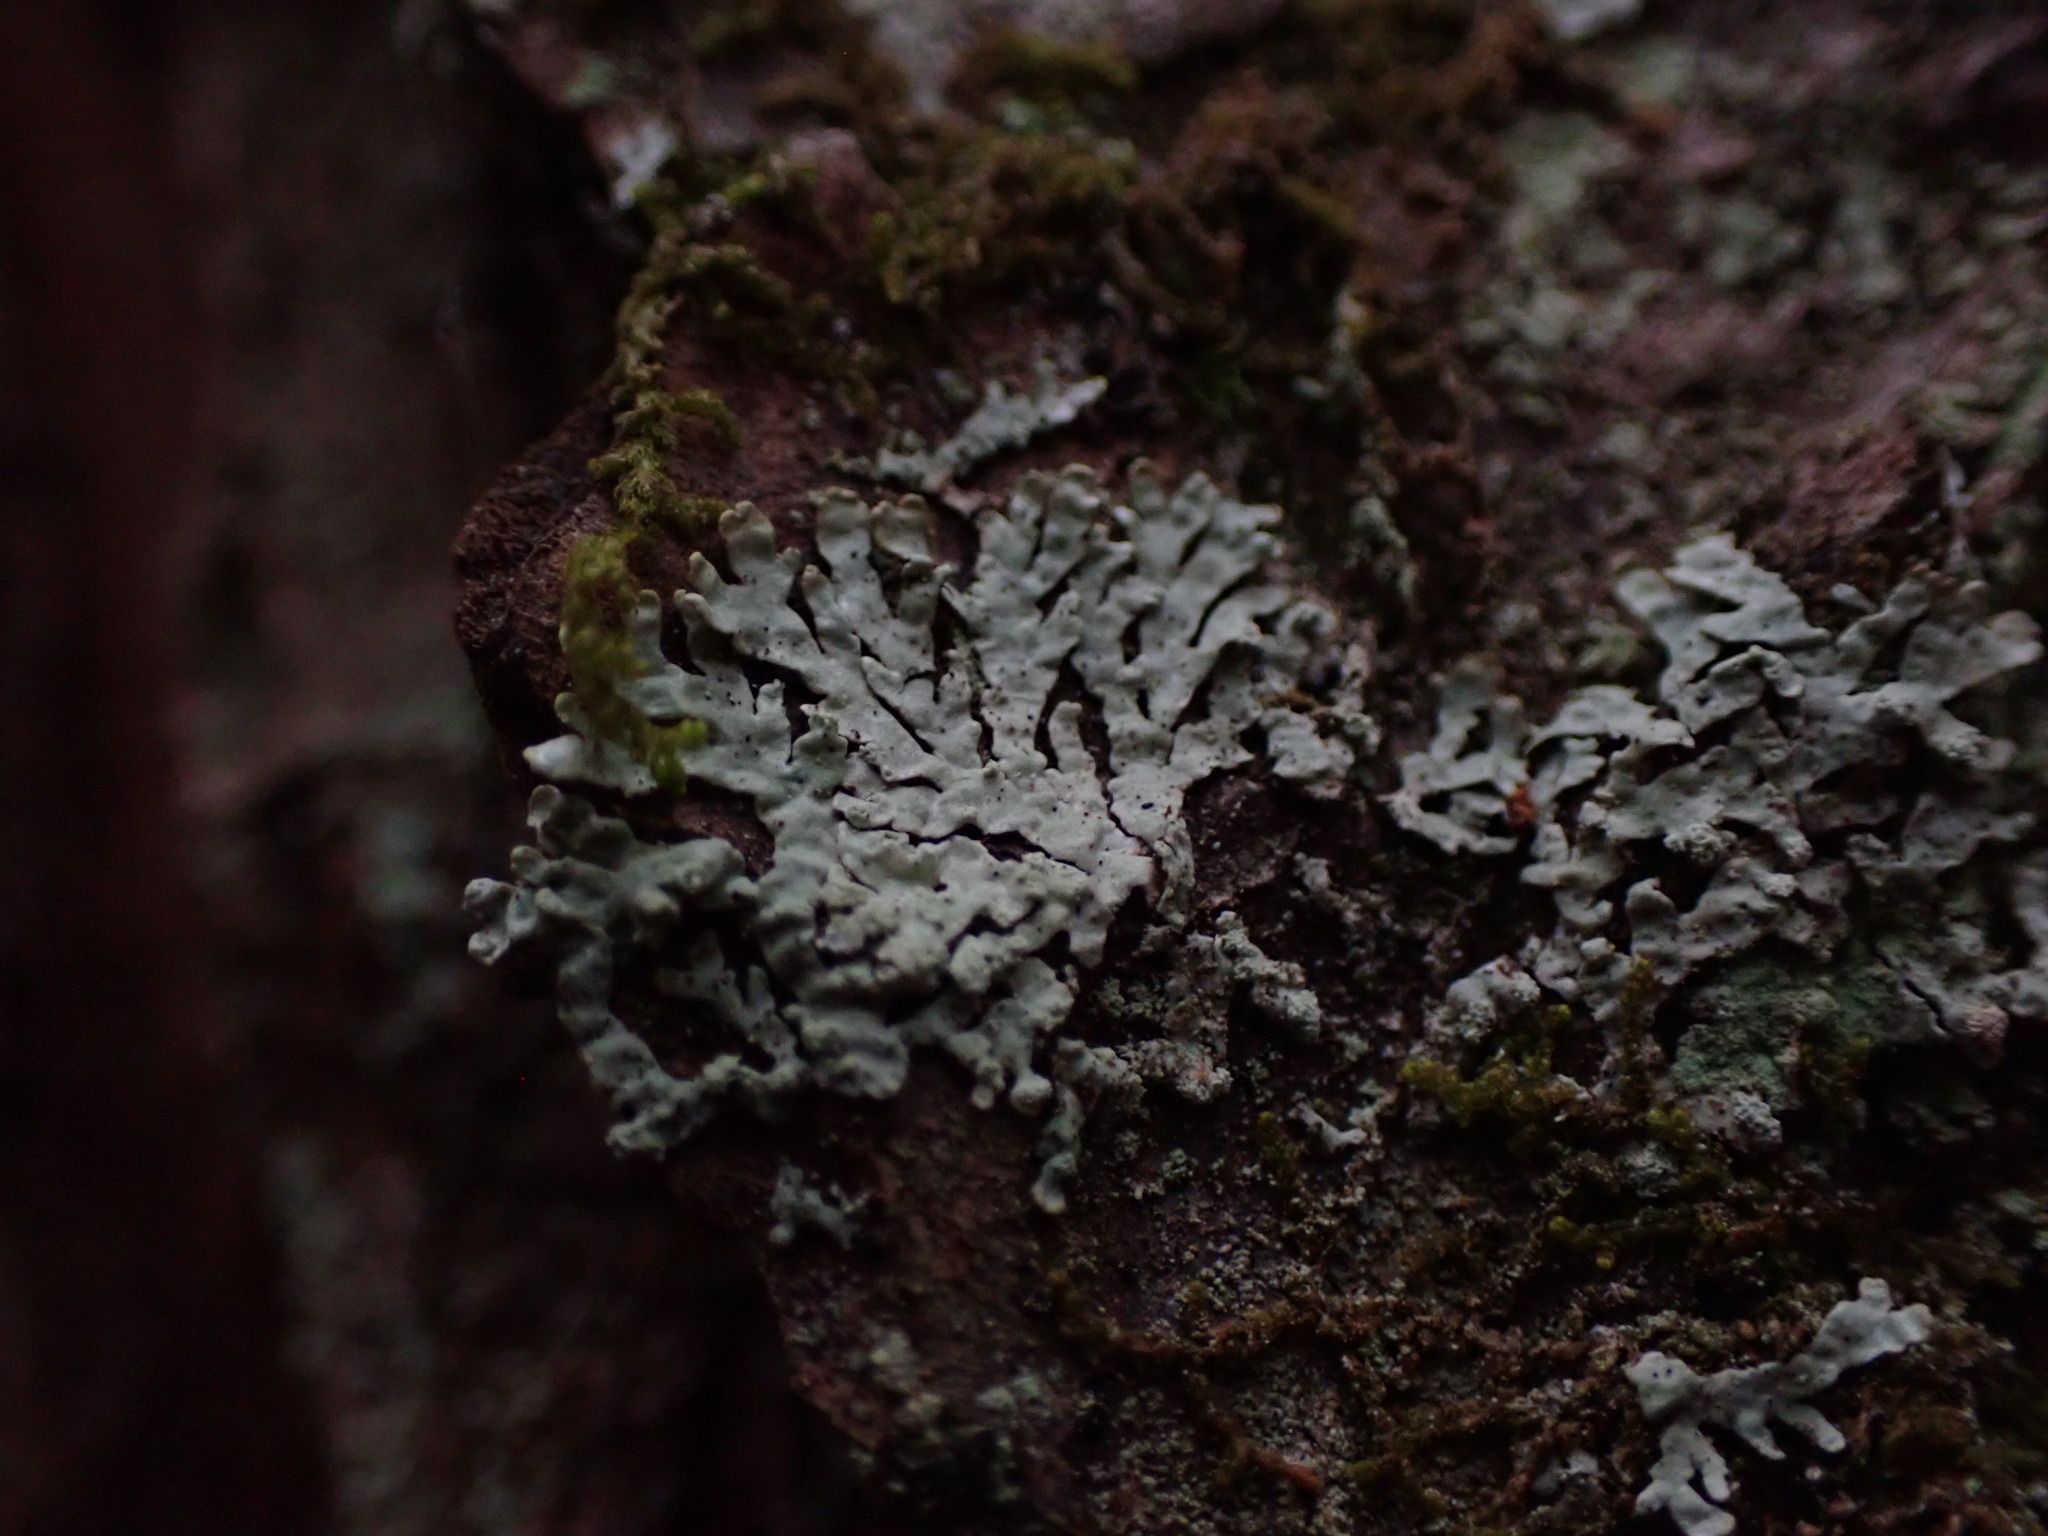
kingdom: Fungi
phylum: Ascomycota
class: Lecanoromycetes
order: Lecanorales
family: Parmeliaceae
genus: Parmeliopsis
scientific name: Parmeliopsis hyperopta
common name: Grey starburst lichen
